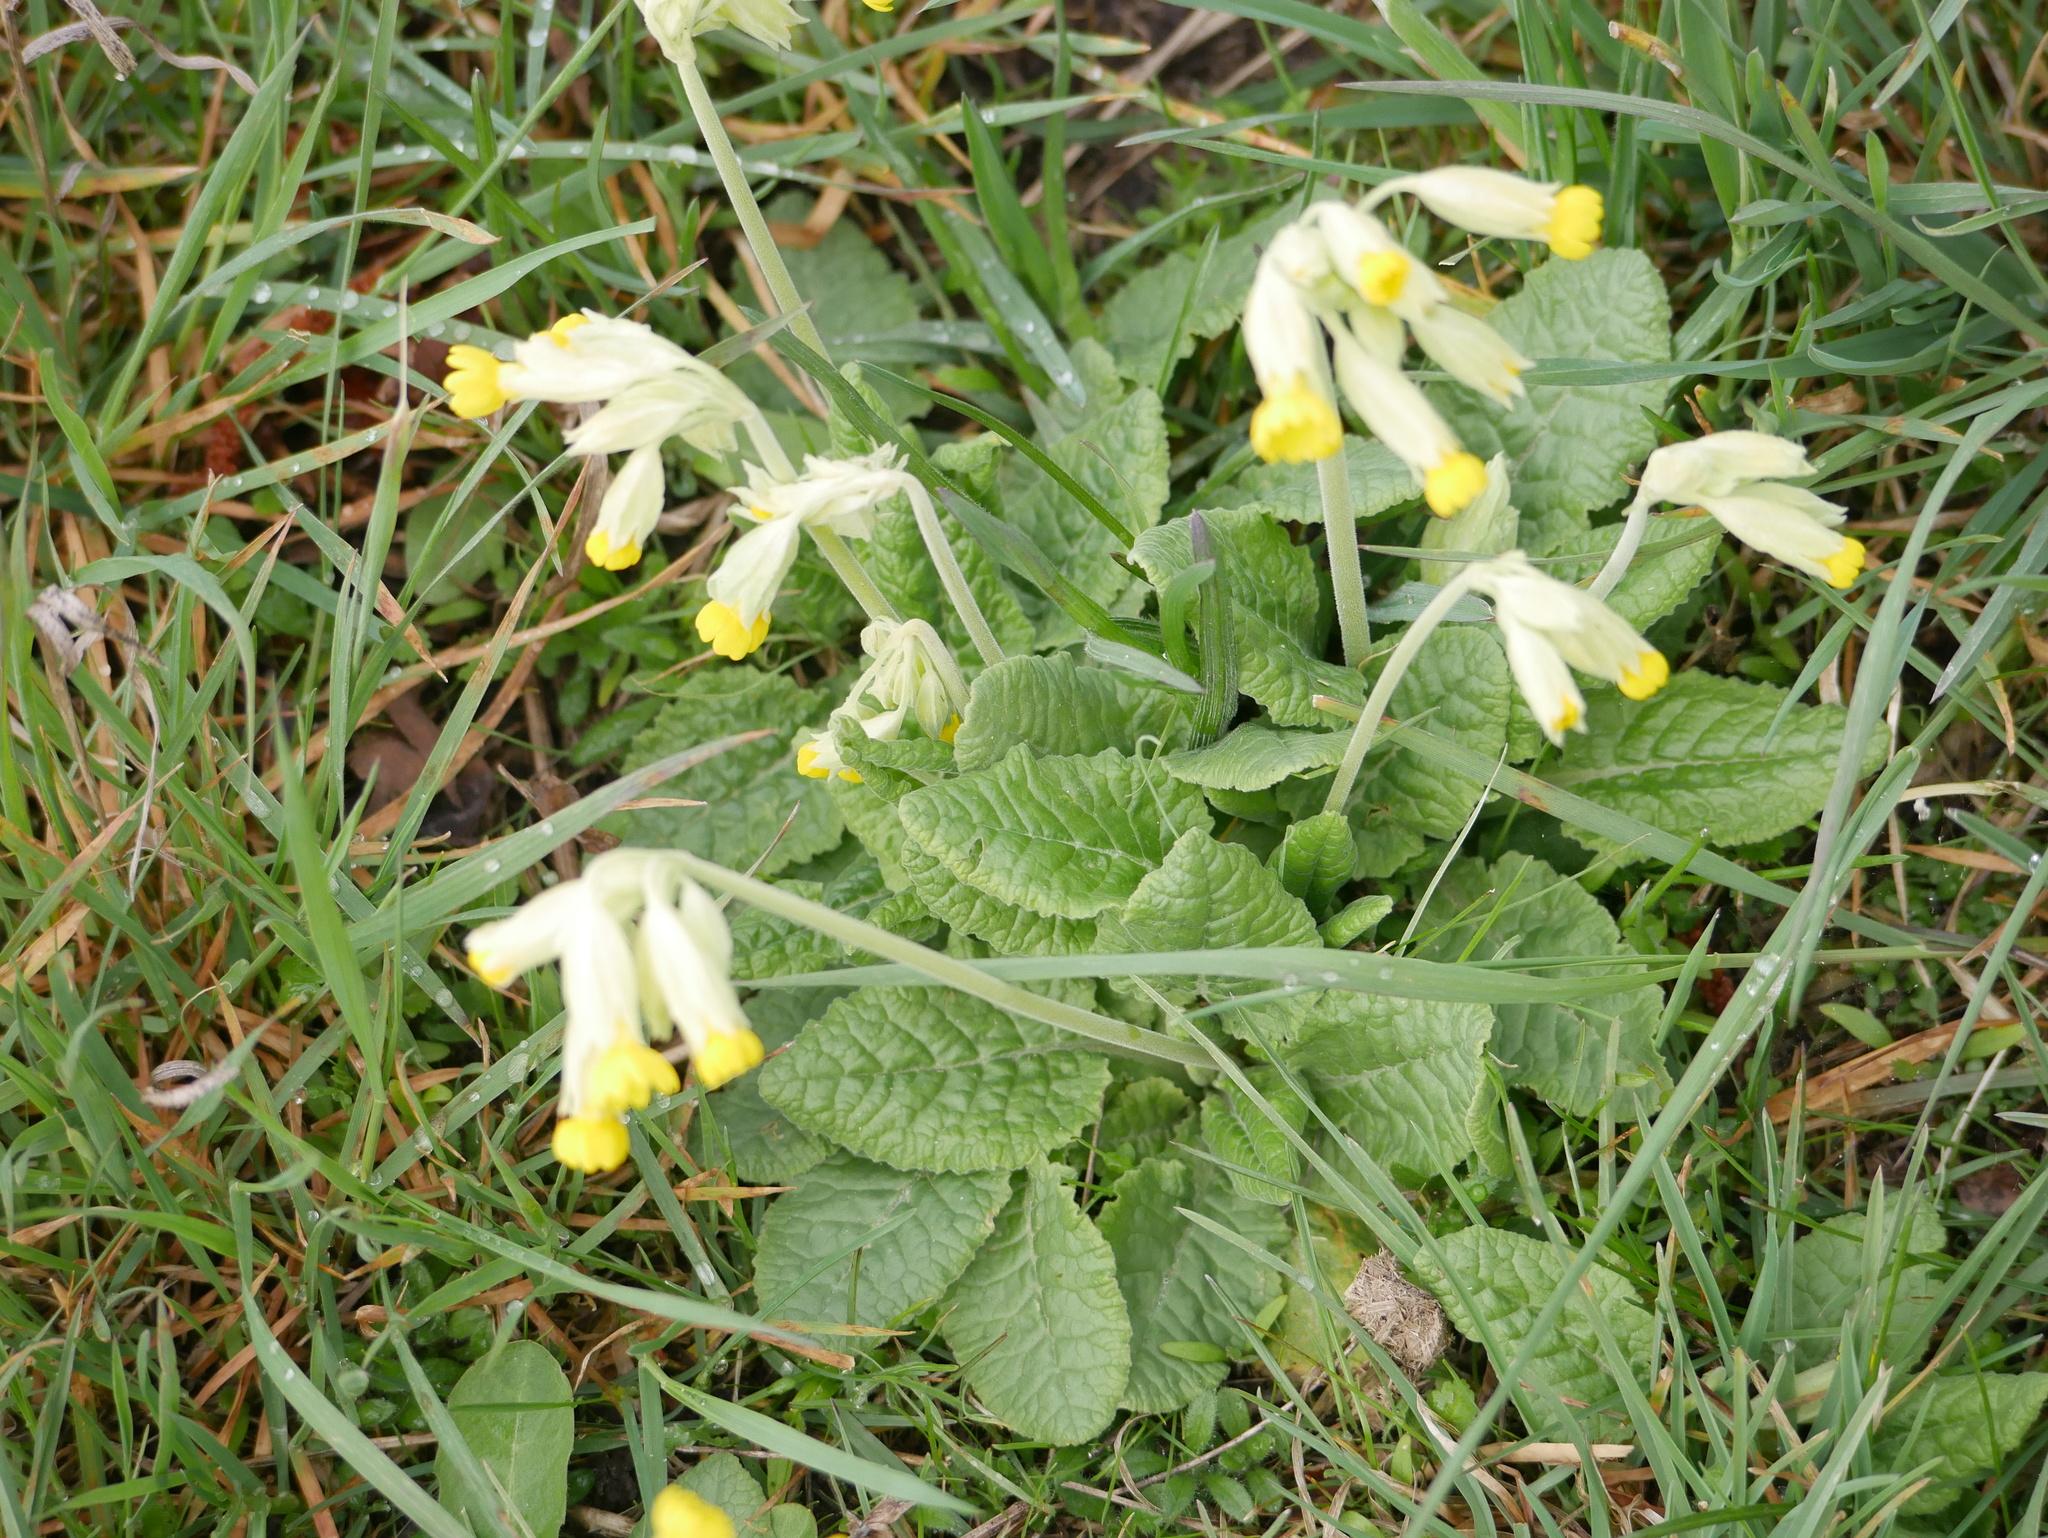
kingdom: Plantae
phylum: Tracheophyta
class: Magnoliopsida
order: Ericales
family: Primulaceae
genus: Primula
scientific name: Primula veris
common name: Cowslip
